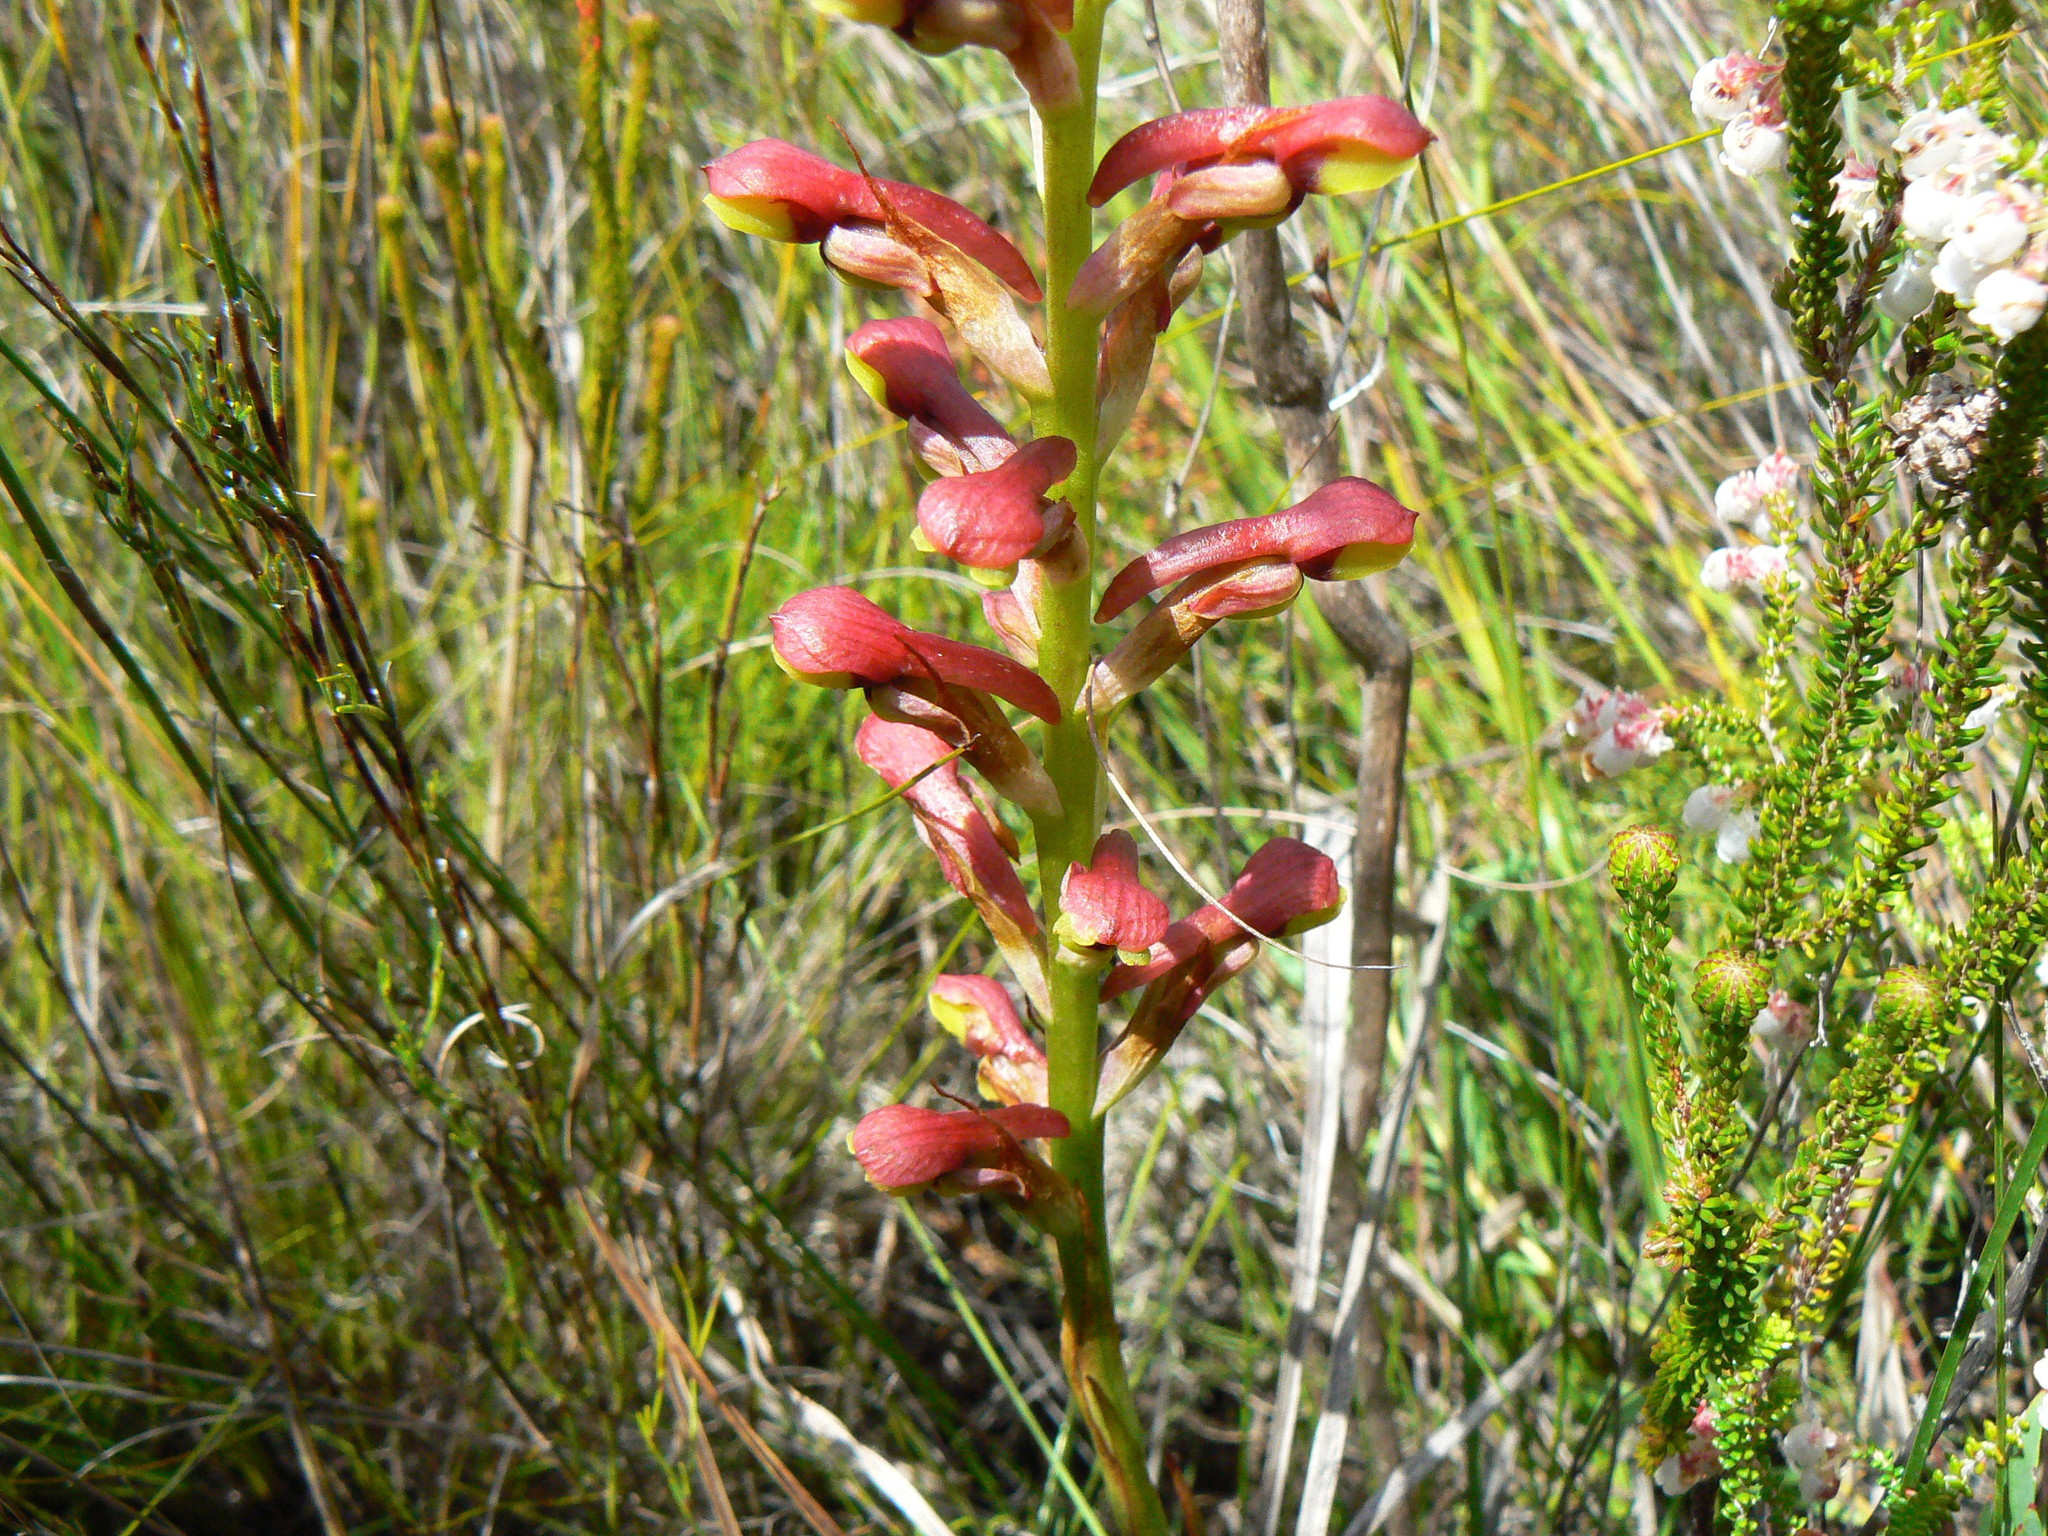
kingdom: Plantae
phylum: Tracheophyta
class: Liliopsida
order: Asparagales
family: Orchidaceae
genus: Disa
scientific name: Disa brevicornis
